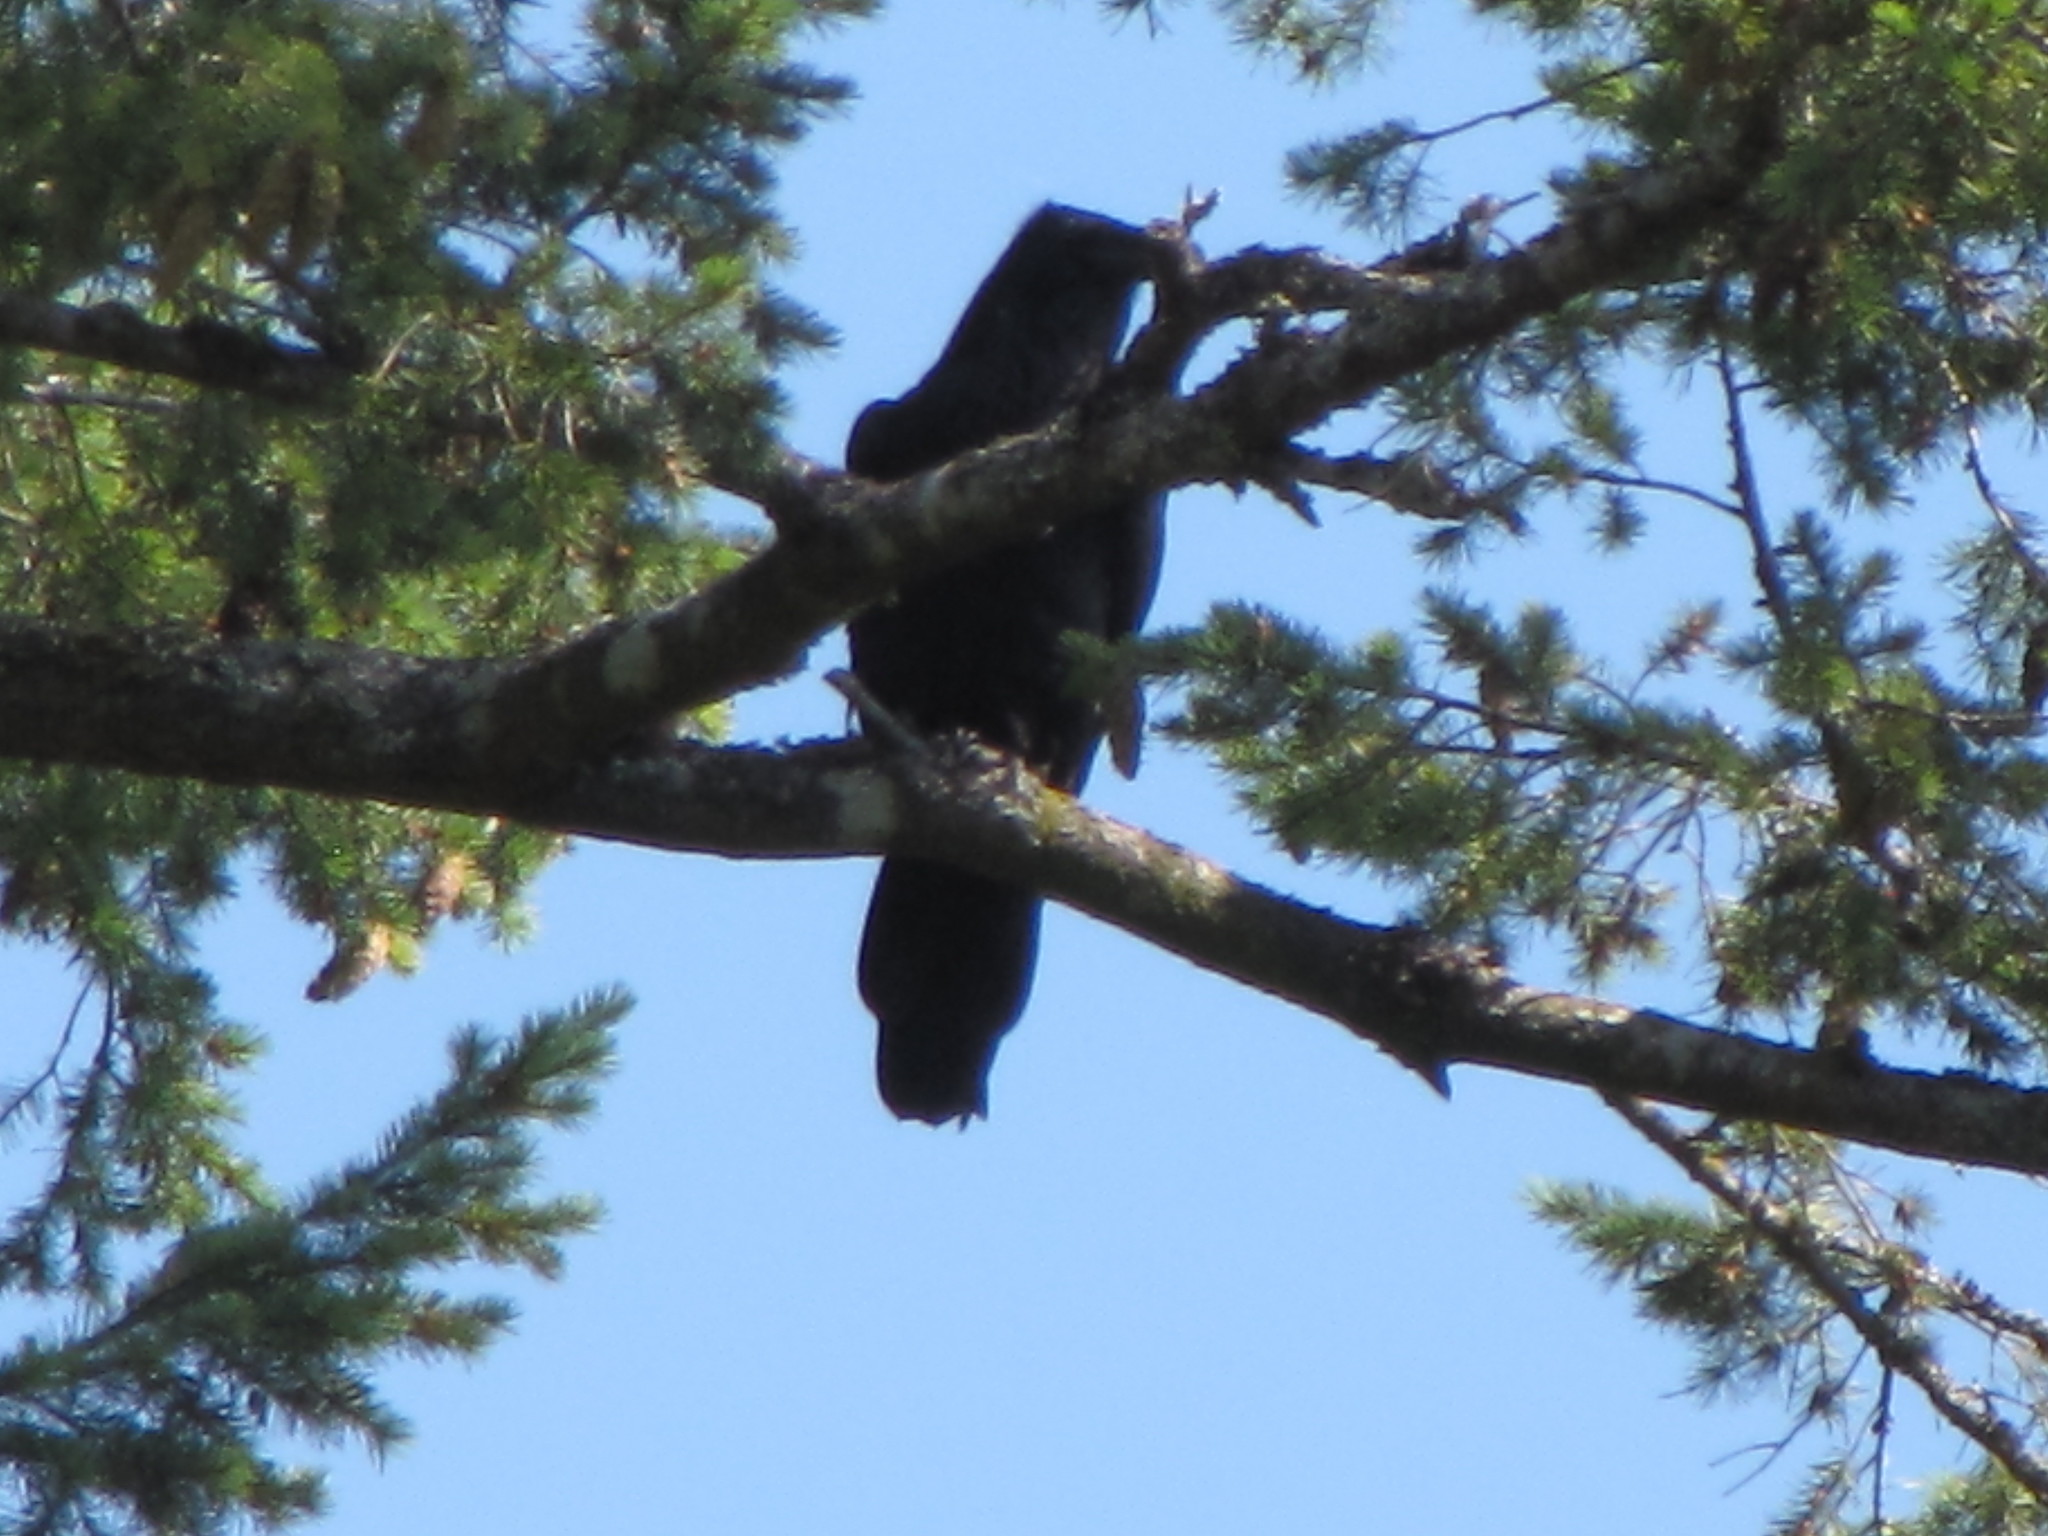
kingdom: Animalia
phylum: Chordata
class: Aves
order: Passeriformes
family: Corvidae
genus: Corvus
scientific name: Corvus corax
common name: Common raven
